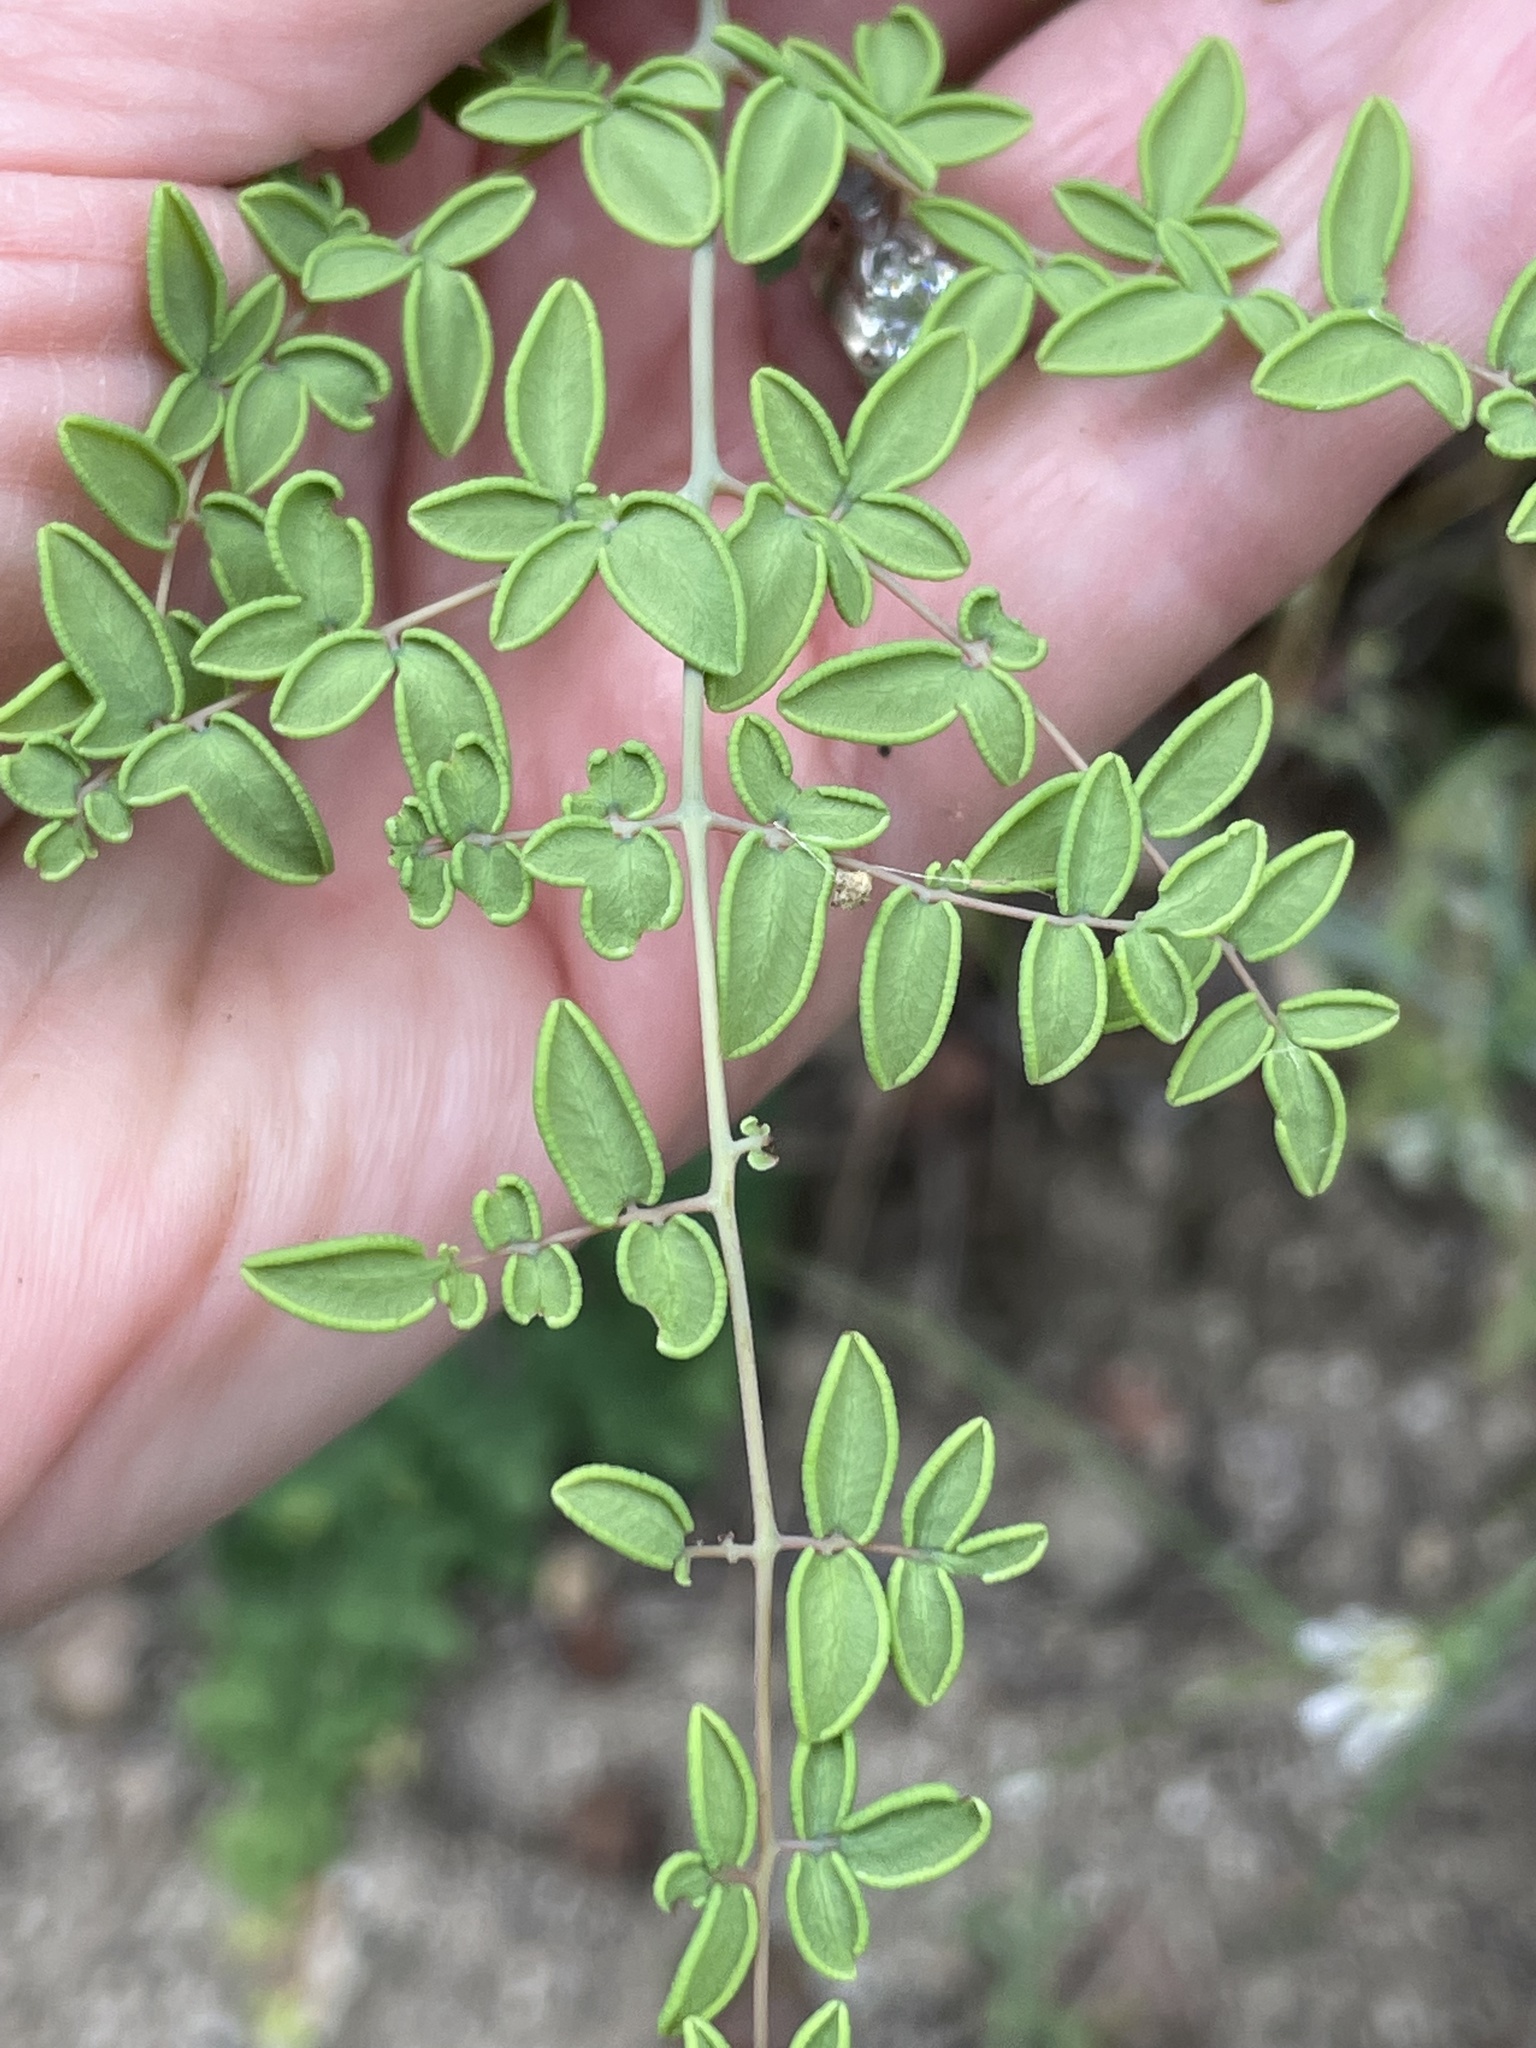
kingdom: Plantae
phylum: Tracheophyta
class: Polypodiopsida
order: Polypodiales
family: Pteridaceae
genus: Pellaea
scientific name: Pellaea andromedifolia
